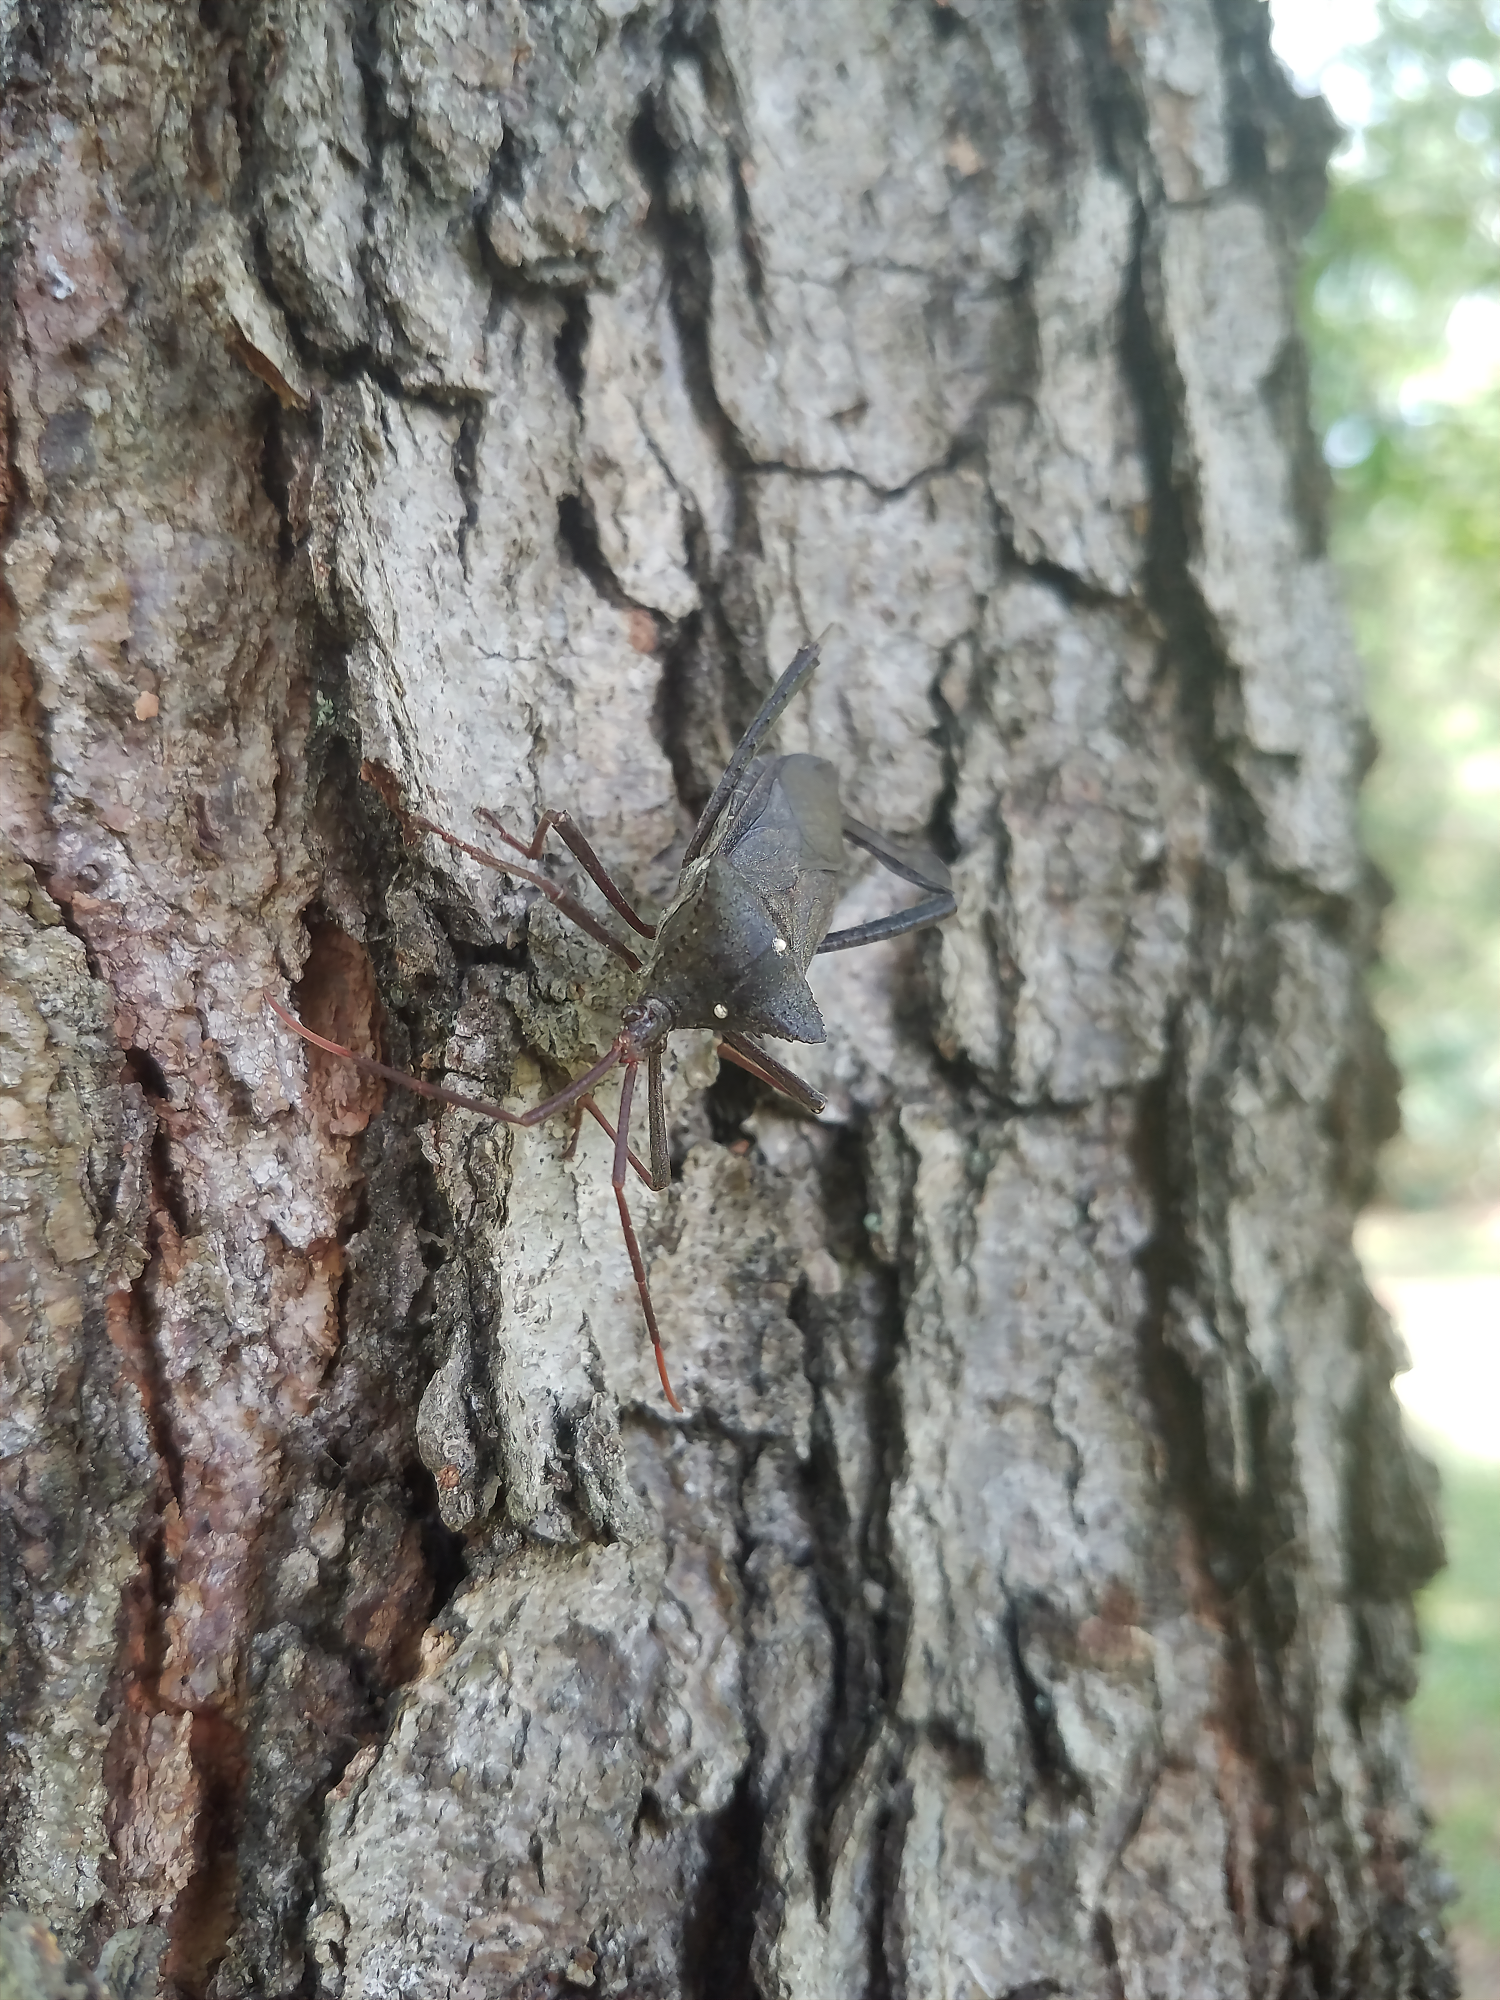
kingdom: Animalia
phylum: Arthropoda
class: Insecta
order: Hemiptera
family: Coreidae
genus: Acanthocephala
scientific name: Acanthocephala declivis
